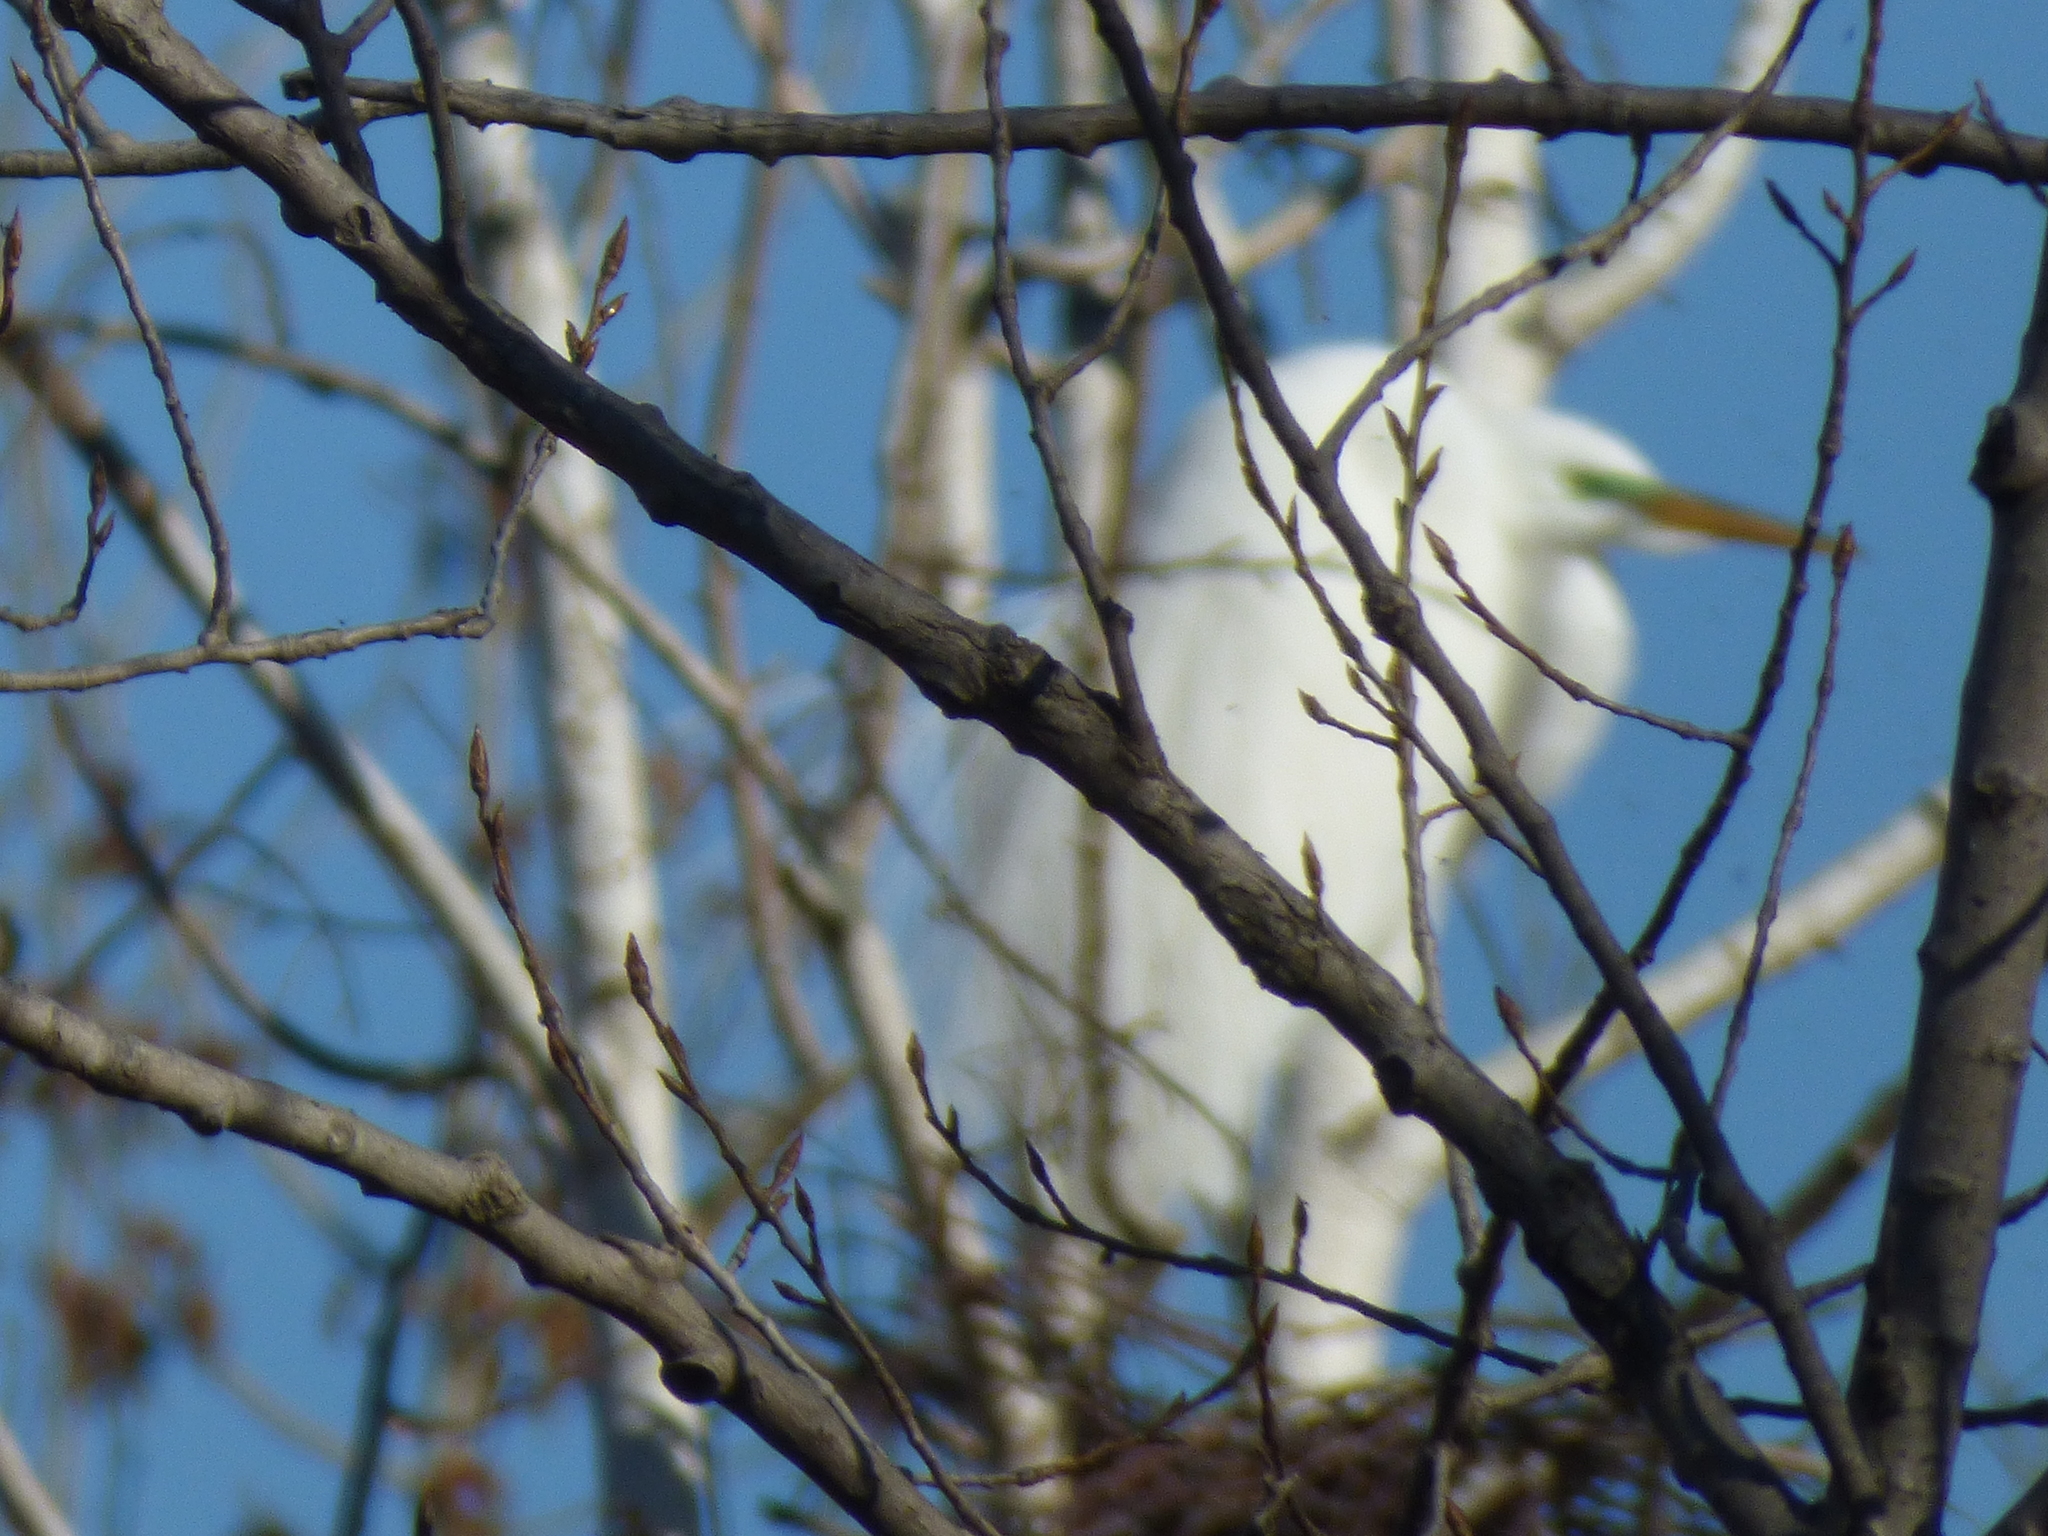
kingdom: Animalia
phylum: Chordata
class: Aves
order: Pelecaniformes
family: Ardeidae
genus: Ardea
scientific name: Ardea alba
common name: Great egret
